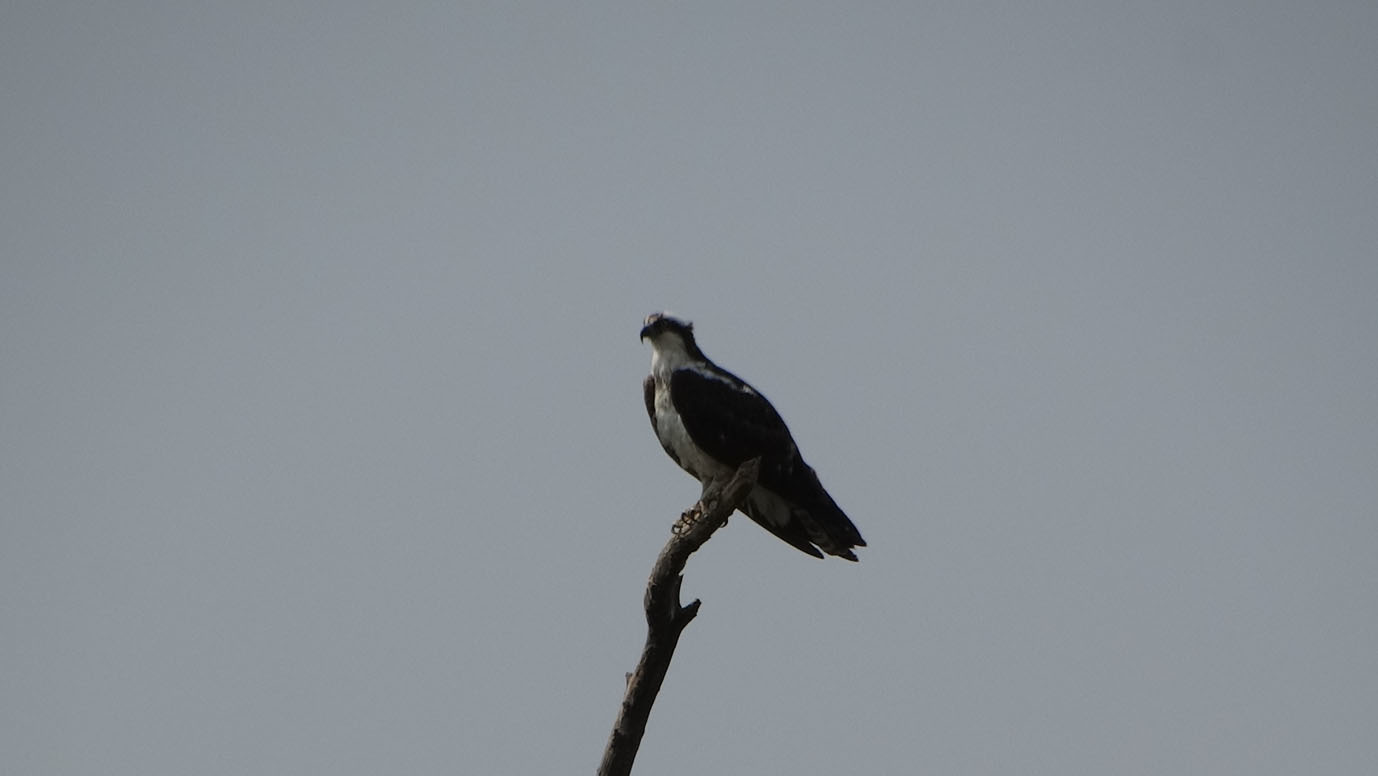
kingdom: Animalia
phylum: Chordata
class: Aves
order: Accipitriformes
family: Pandionidae
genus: Pandion
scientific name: Pandion haliaetus
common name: Osprey
